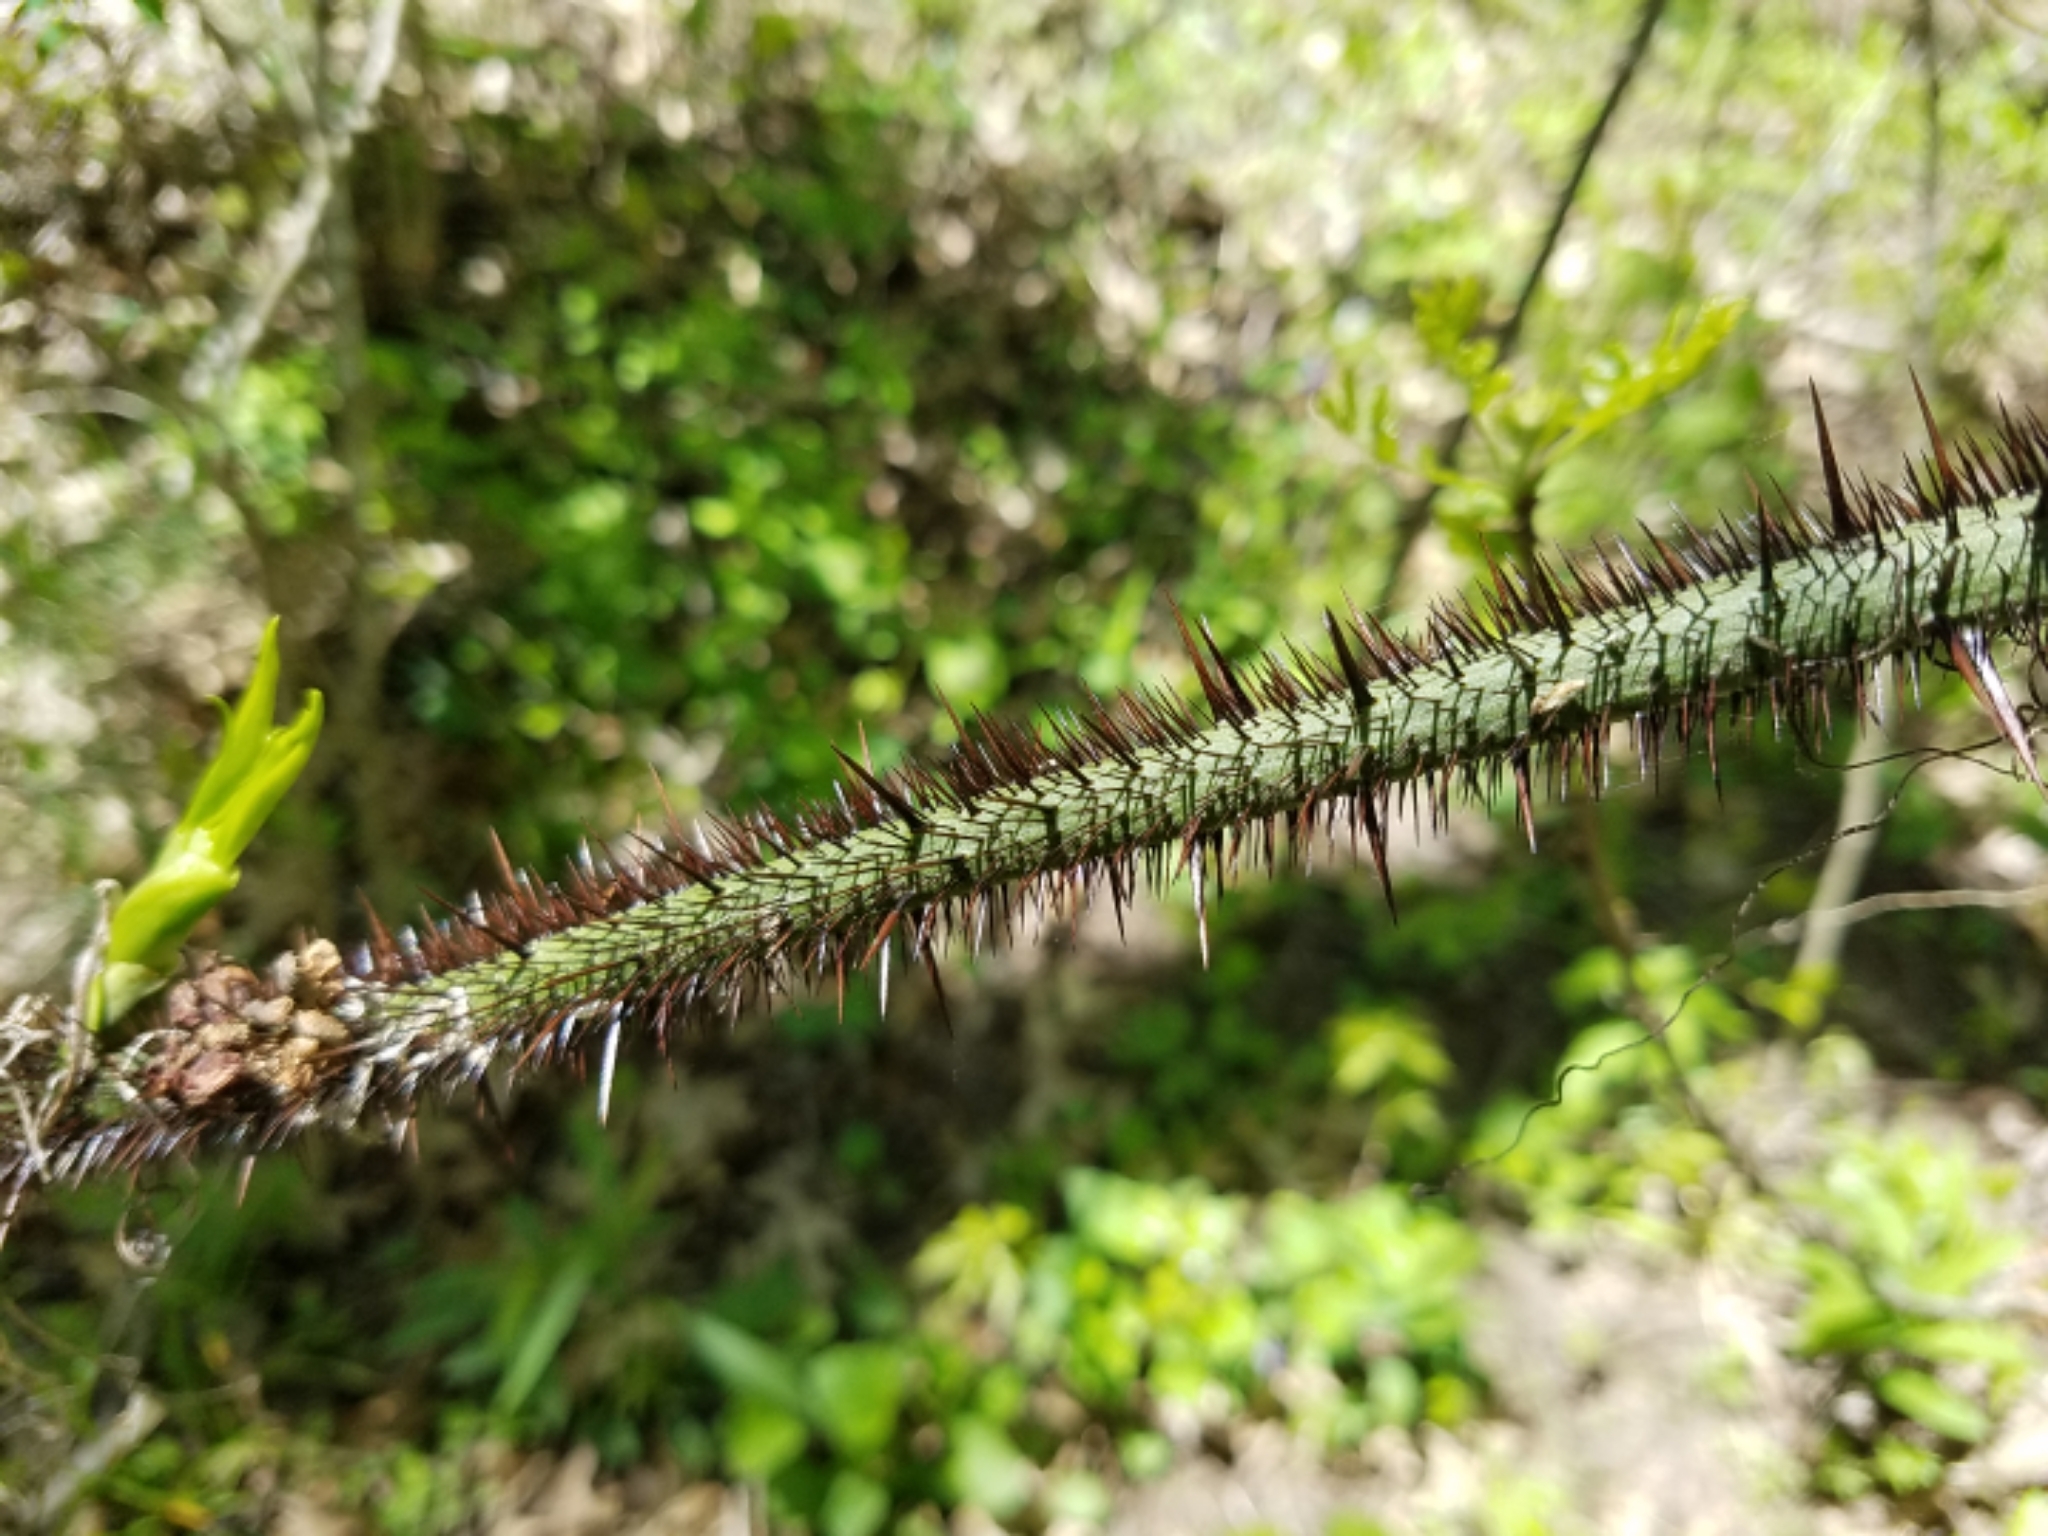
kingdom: Plantae
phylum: Tracheophyta
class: Liliopsida
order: Liliales
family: Smilacaceae
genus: Smilax
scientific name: Smilax tamnoides
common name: Hellfetter
